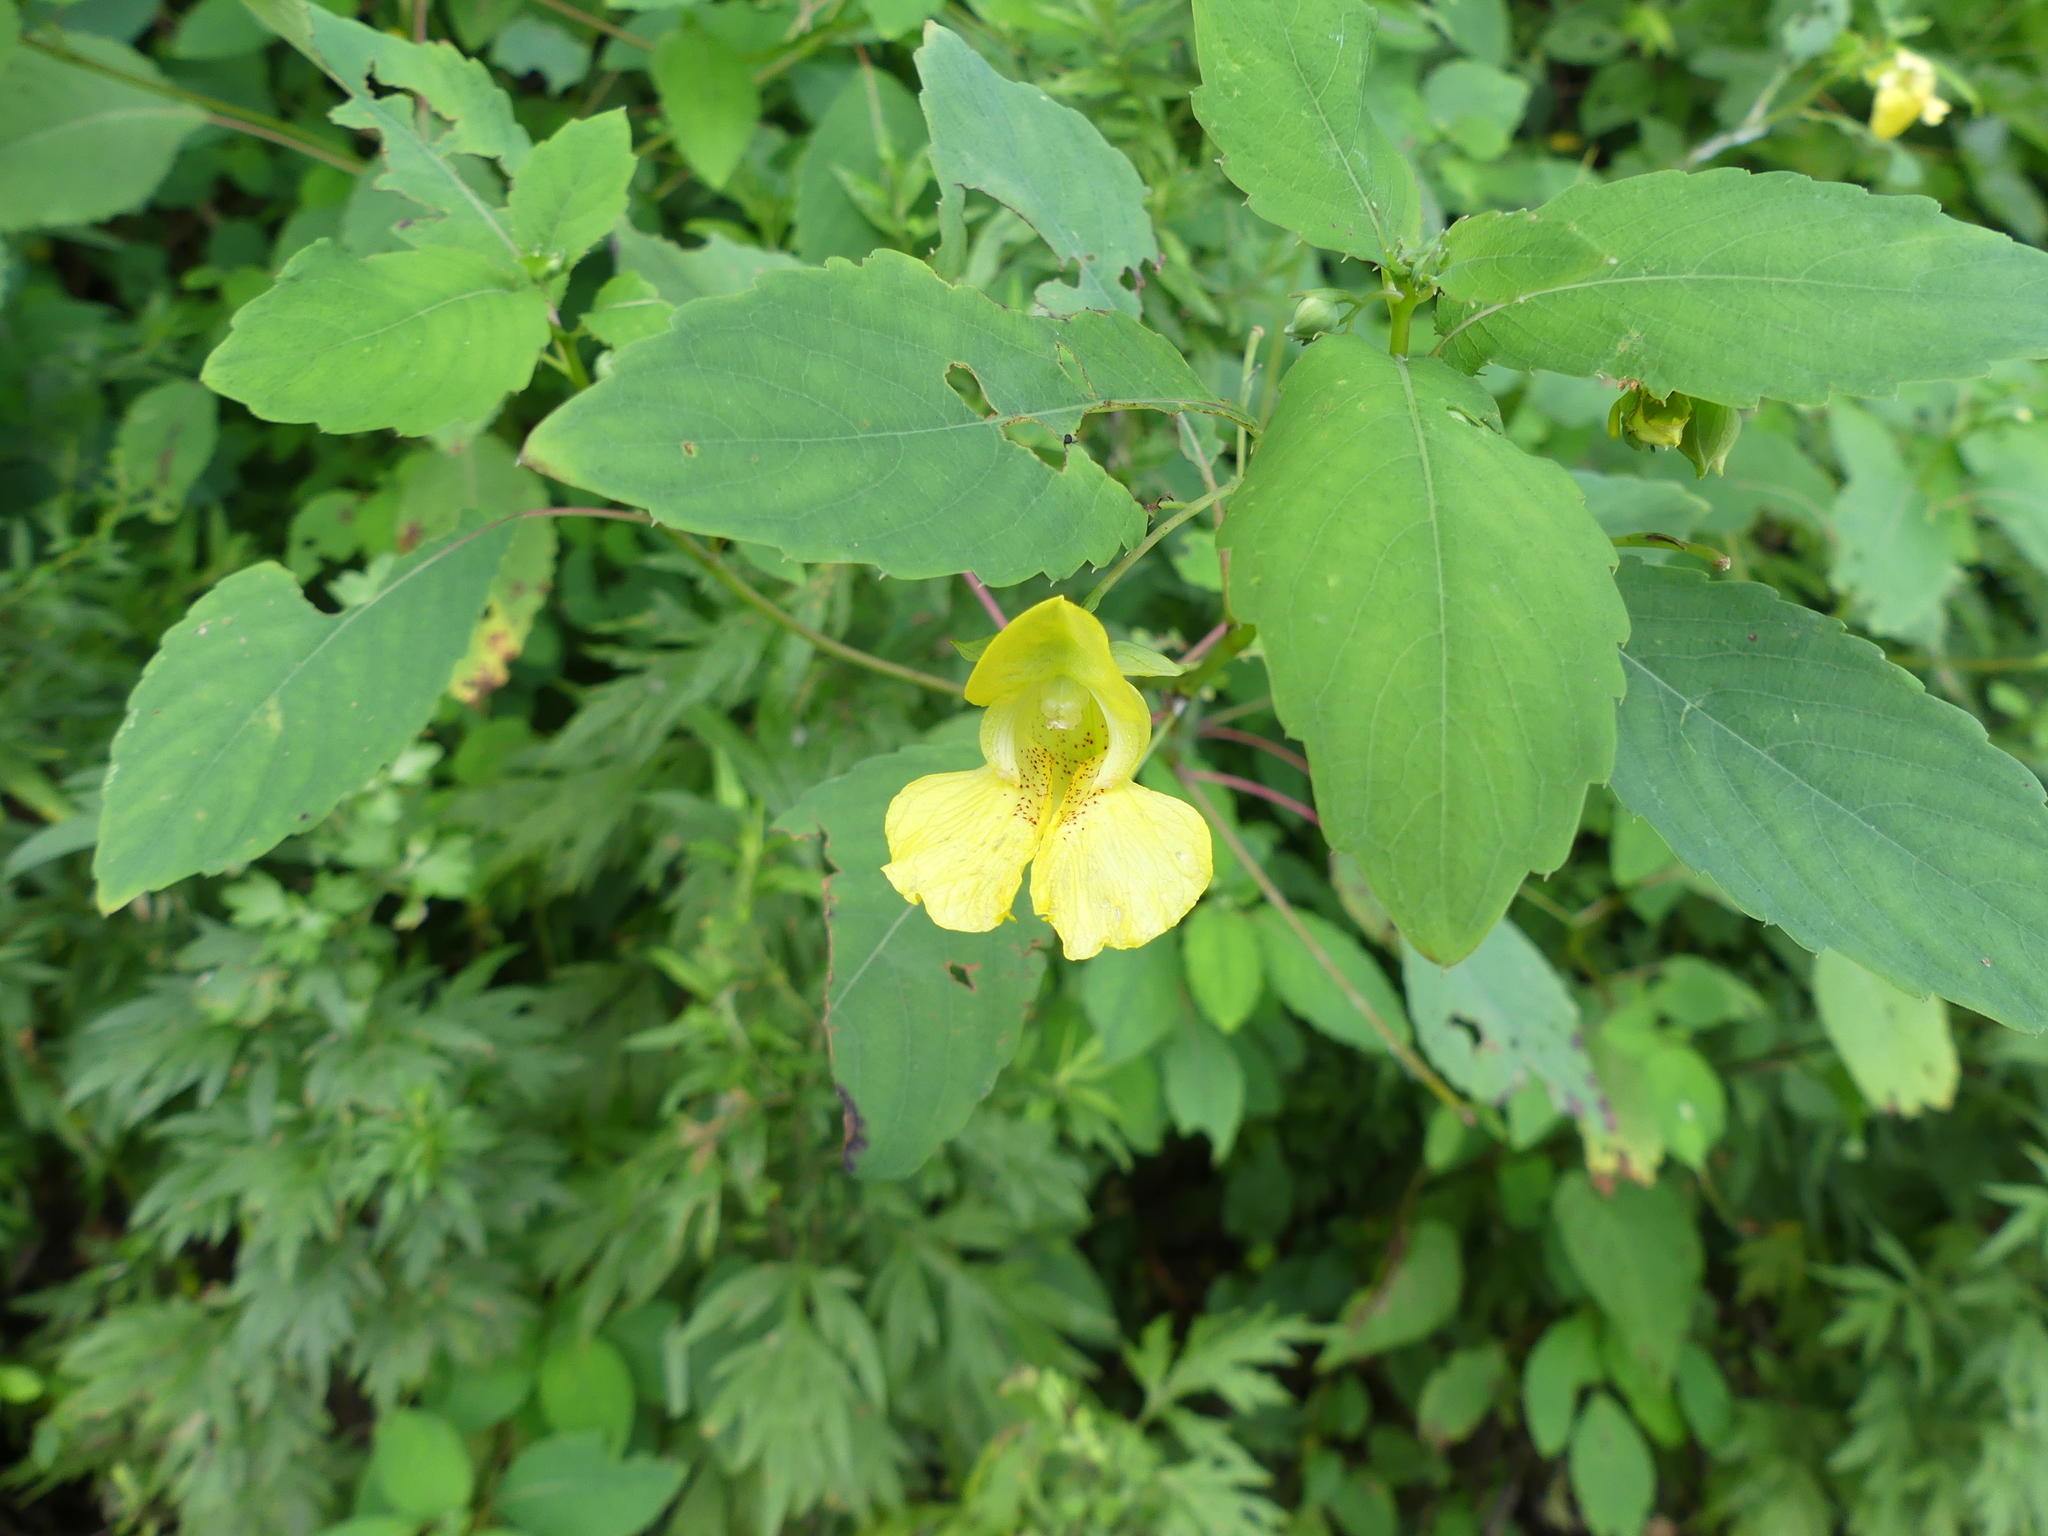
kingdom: Plantae
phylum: Tracheophyta
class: Magnoliopsida
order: Ericales
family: Balsaminaceae
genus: Impatiens
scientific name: Impatiens pallida
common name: Pale snapweed
